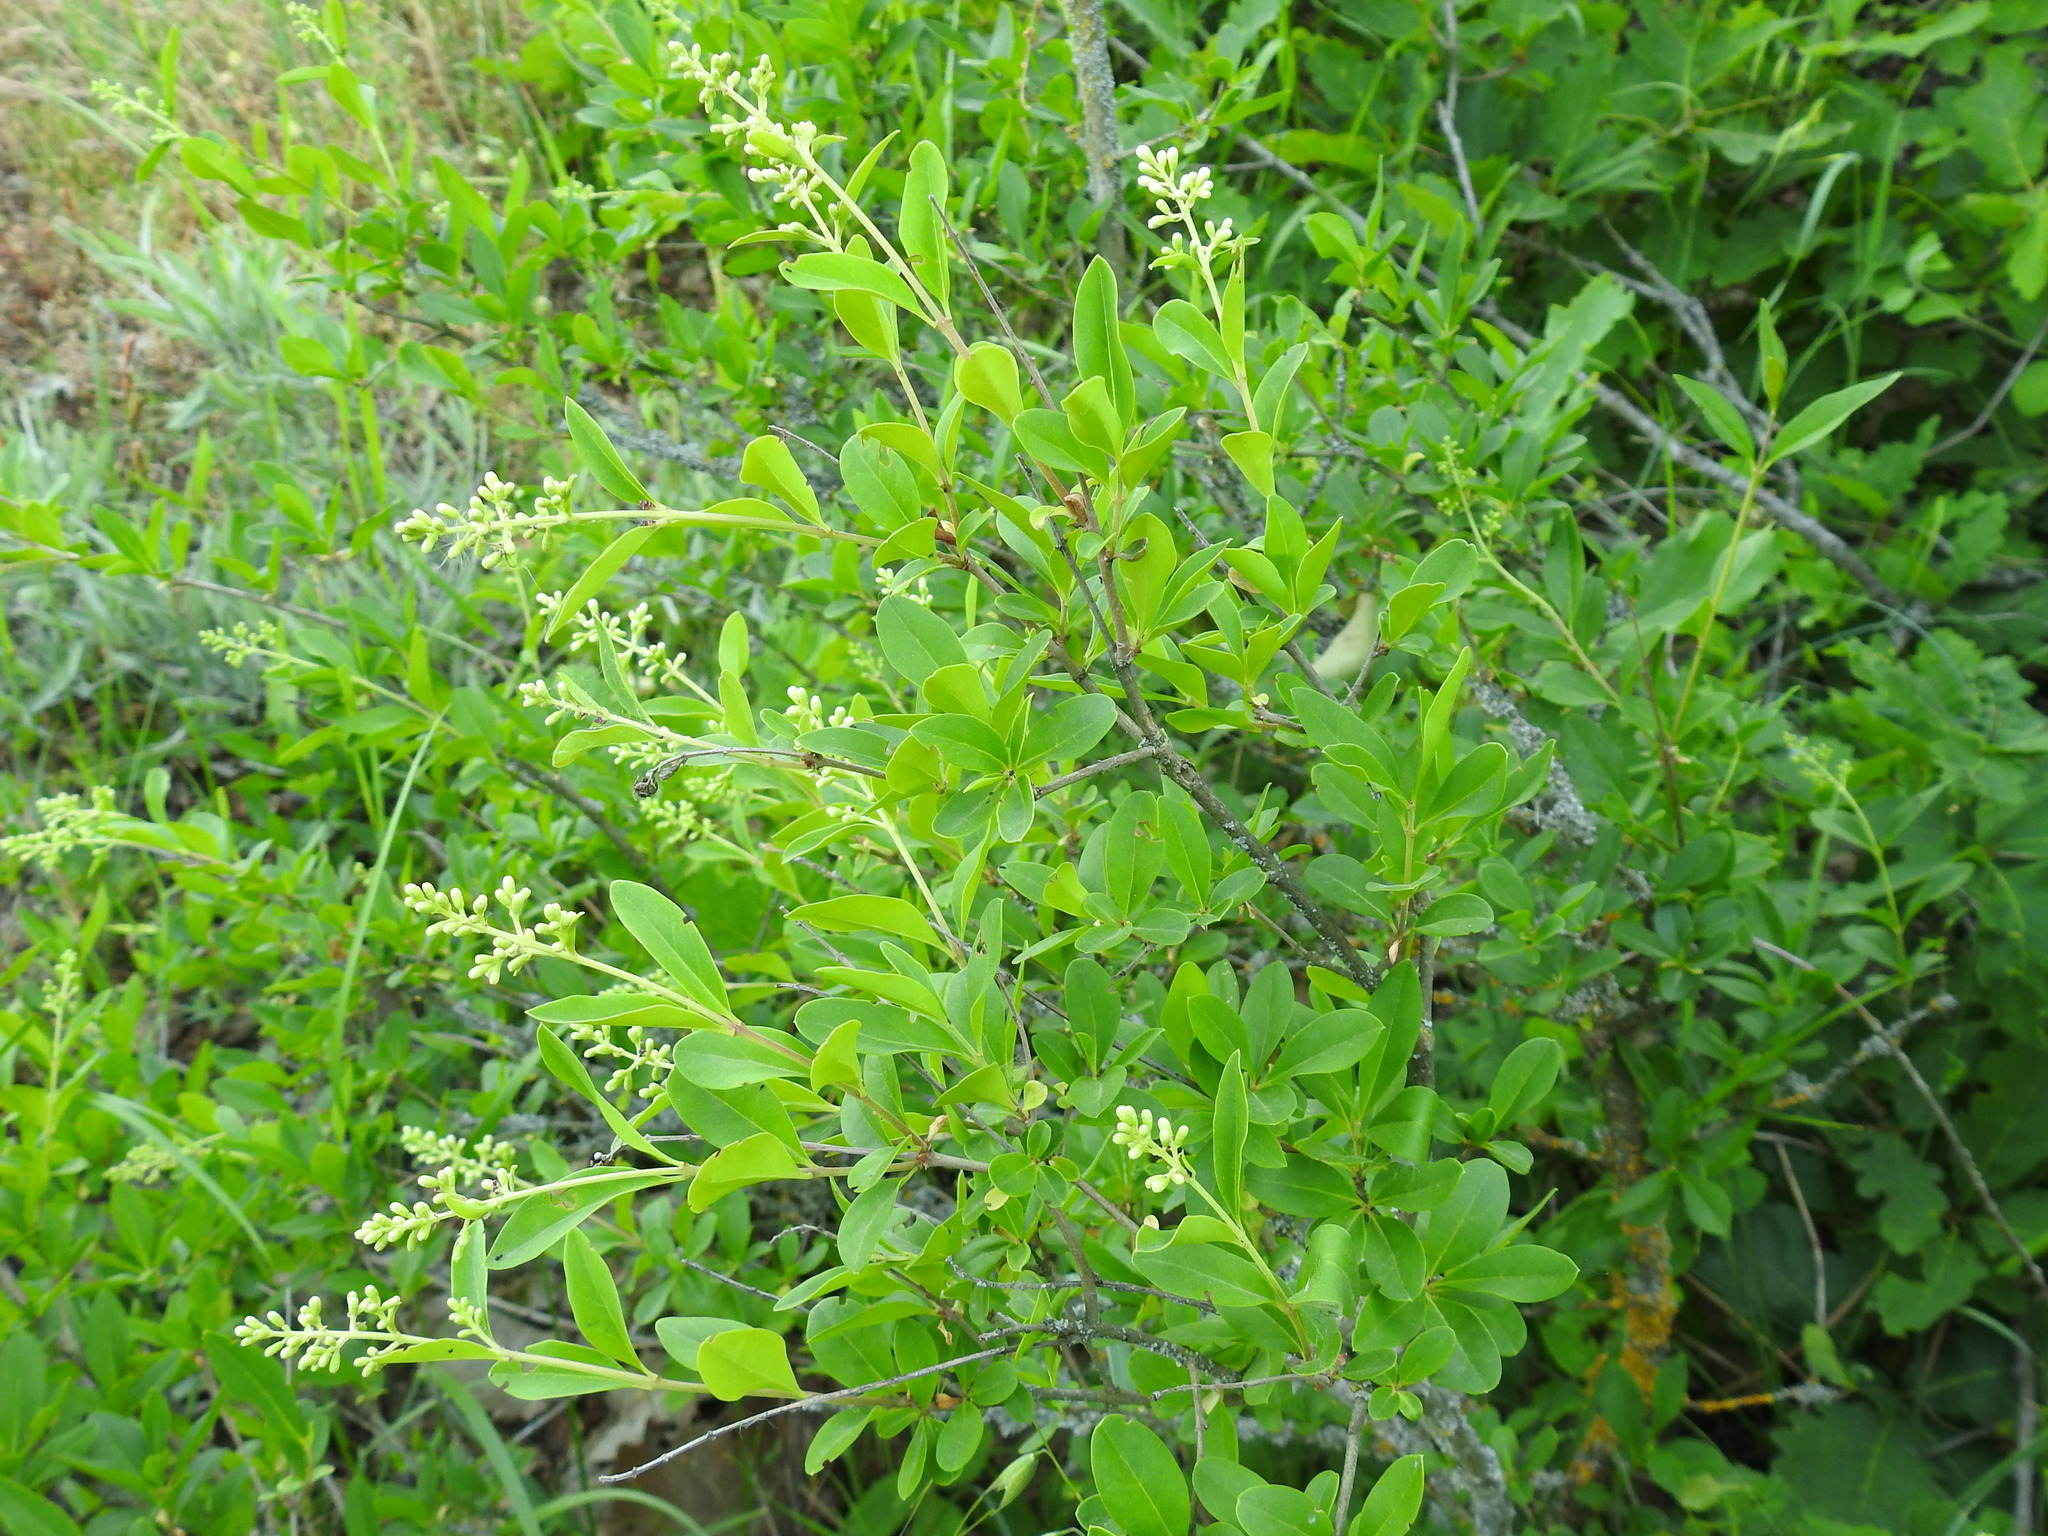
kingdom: Plantae
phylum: Tracheophyta
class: Magnoliopsida
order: Lamiales
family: Oleaceae
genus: Ligustrum
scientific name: Ligustrum vulgare
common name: Wild privet
